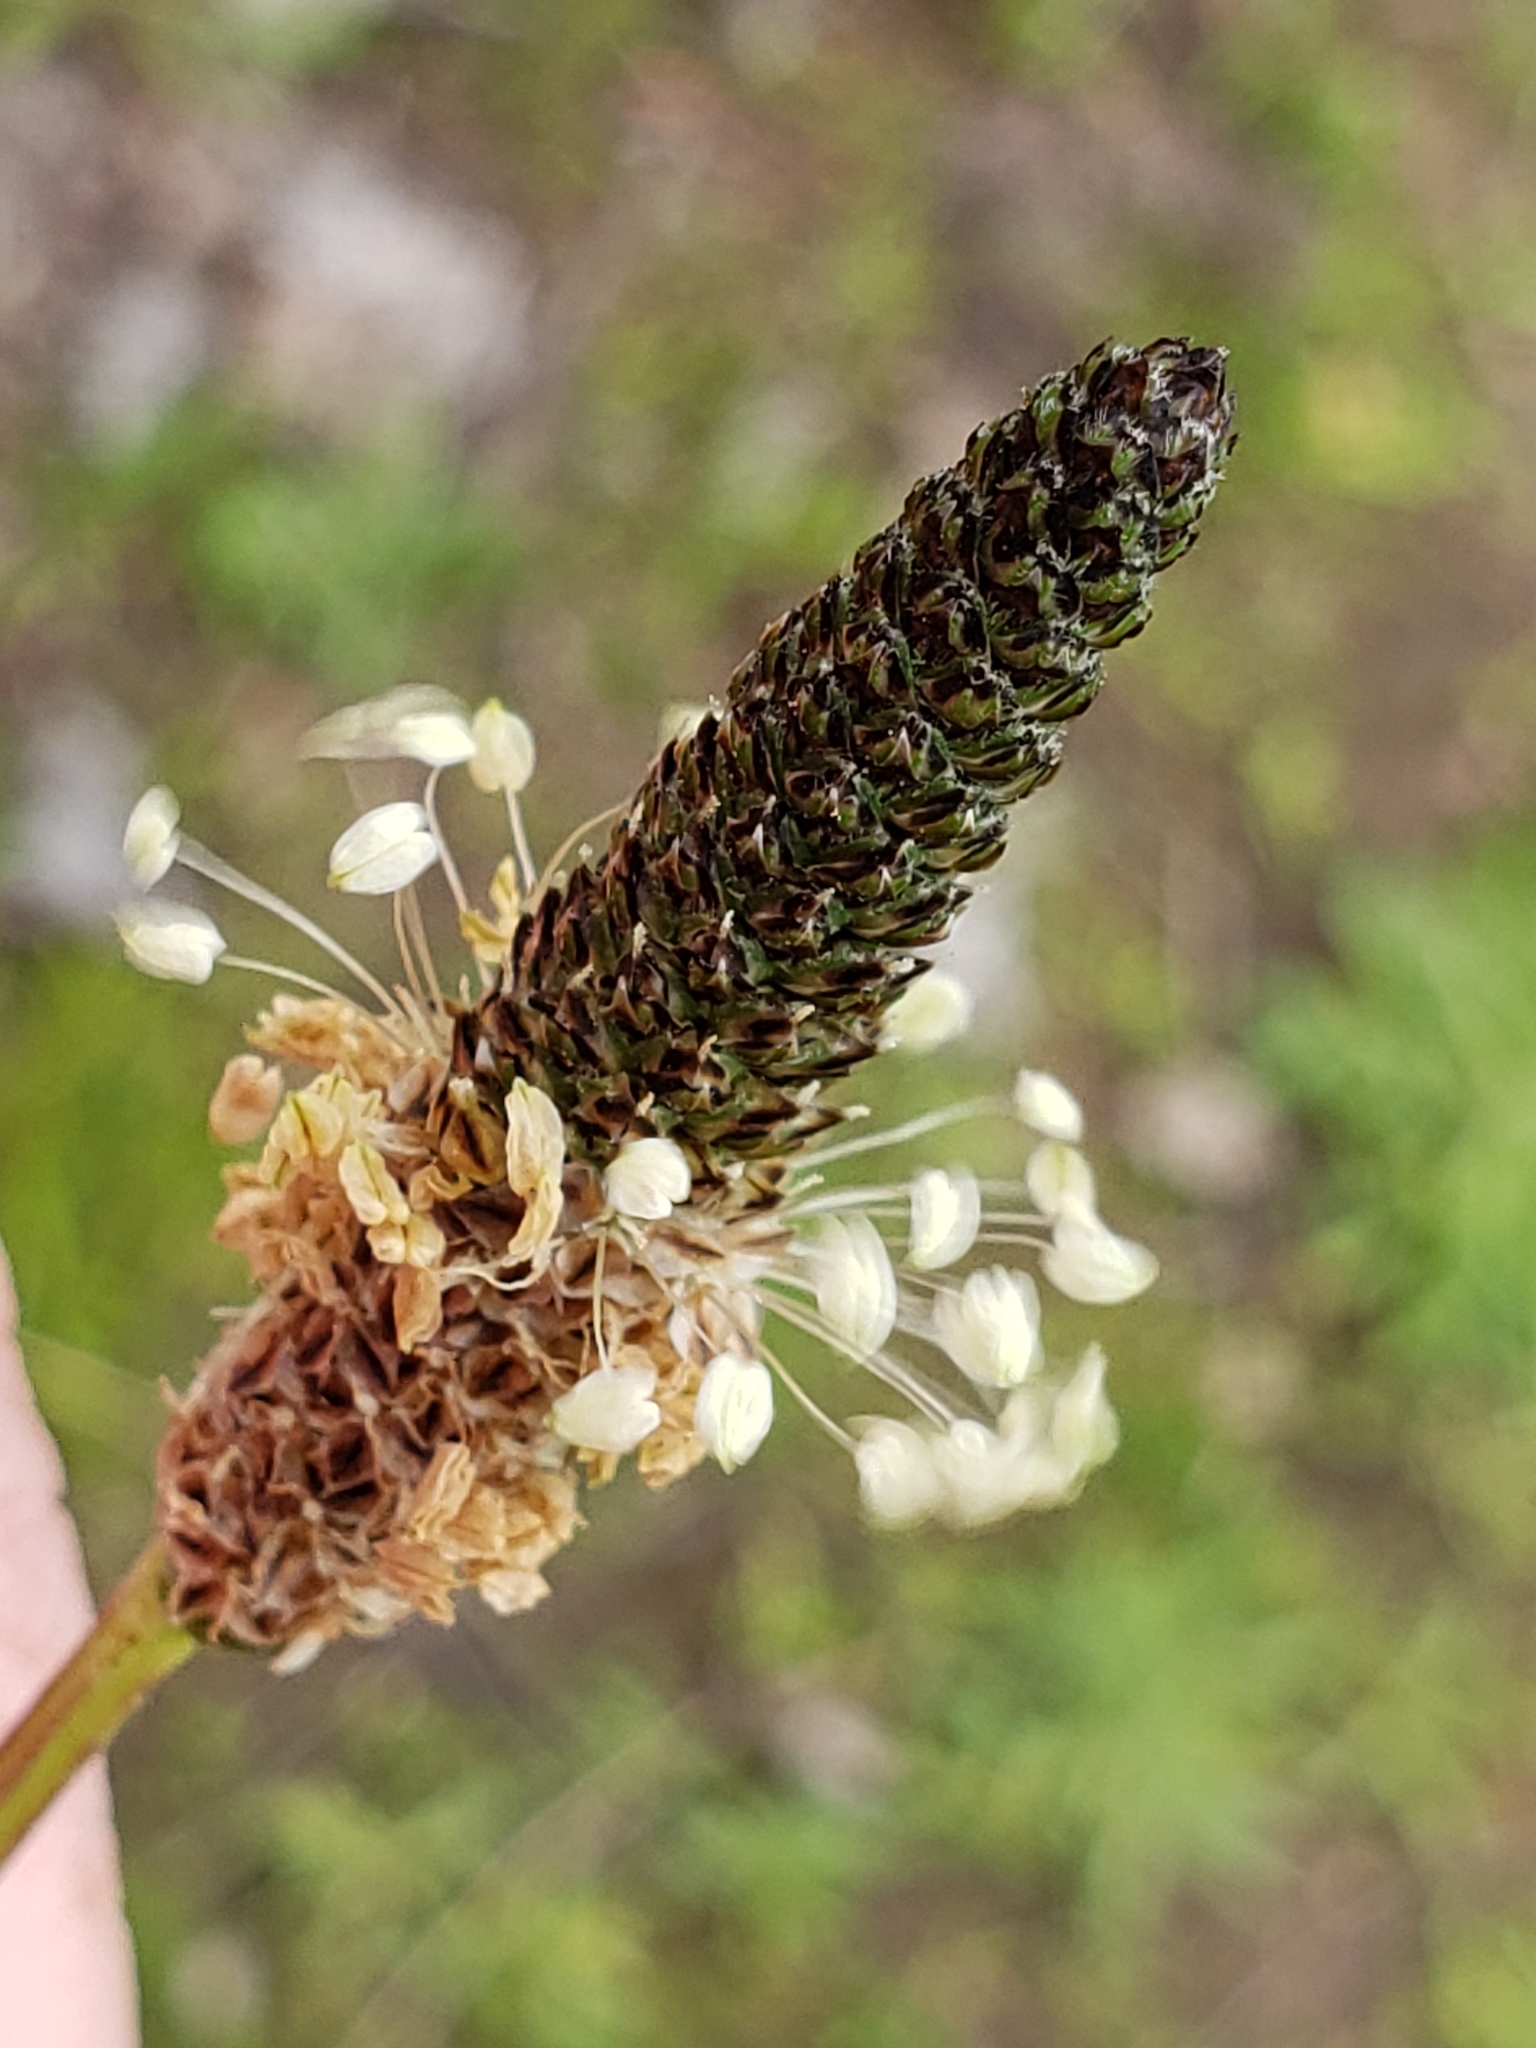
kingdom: Plantae
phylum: Tracheophyta
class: Magnoliopsida
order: Lamiales
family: Plantaginaceae
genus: Plantago
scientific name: Plantago lanceolata
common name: Ribwort plantain
